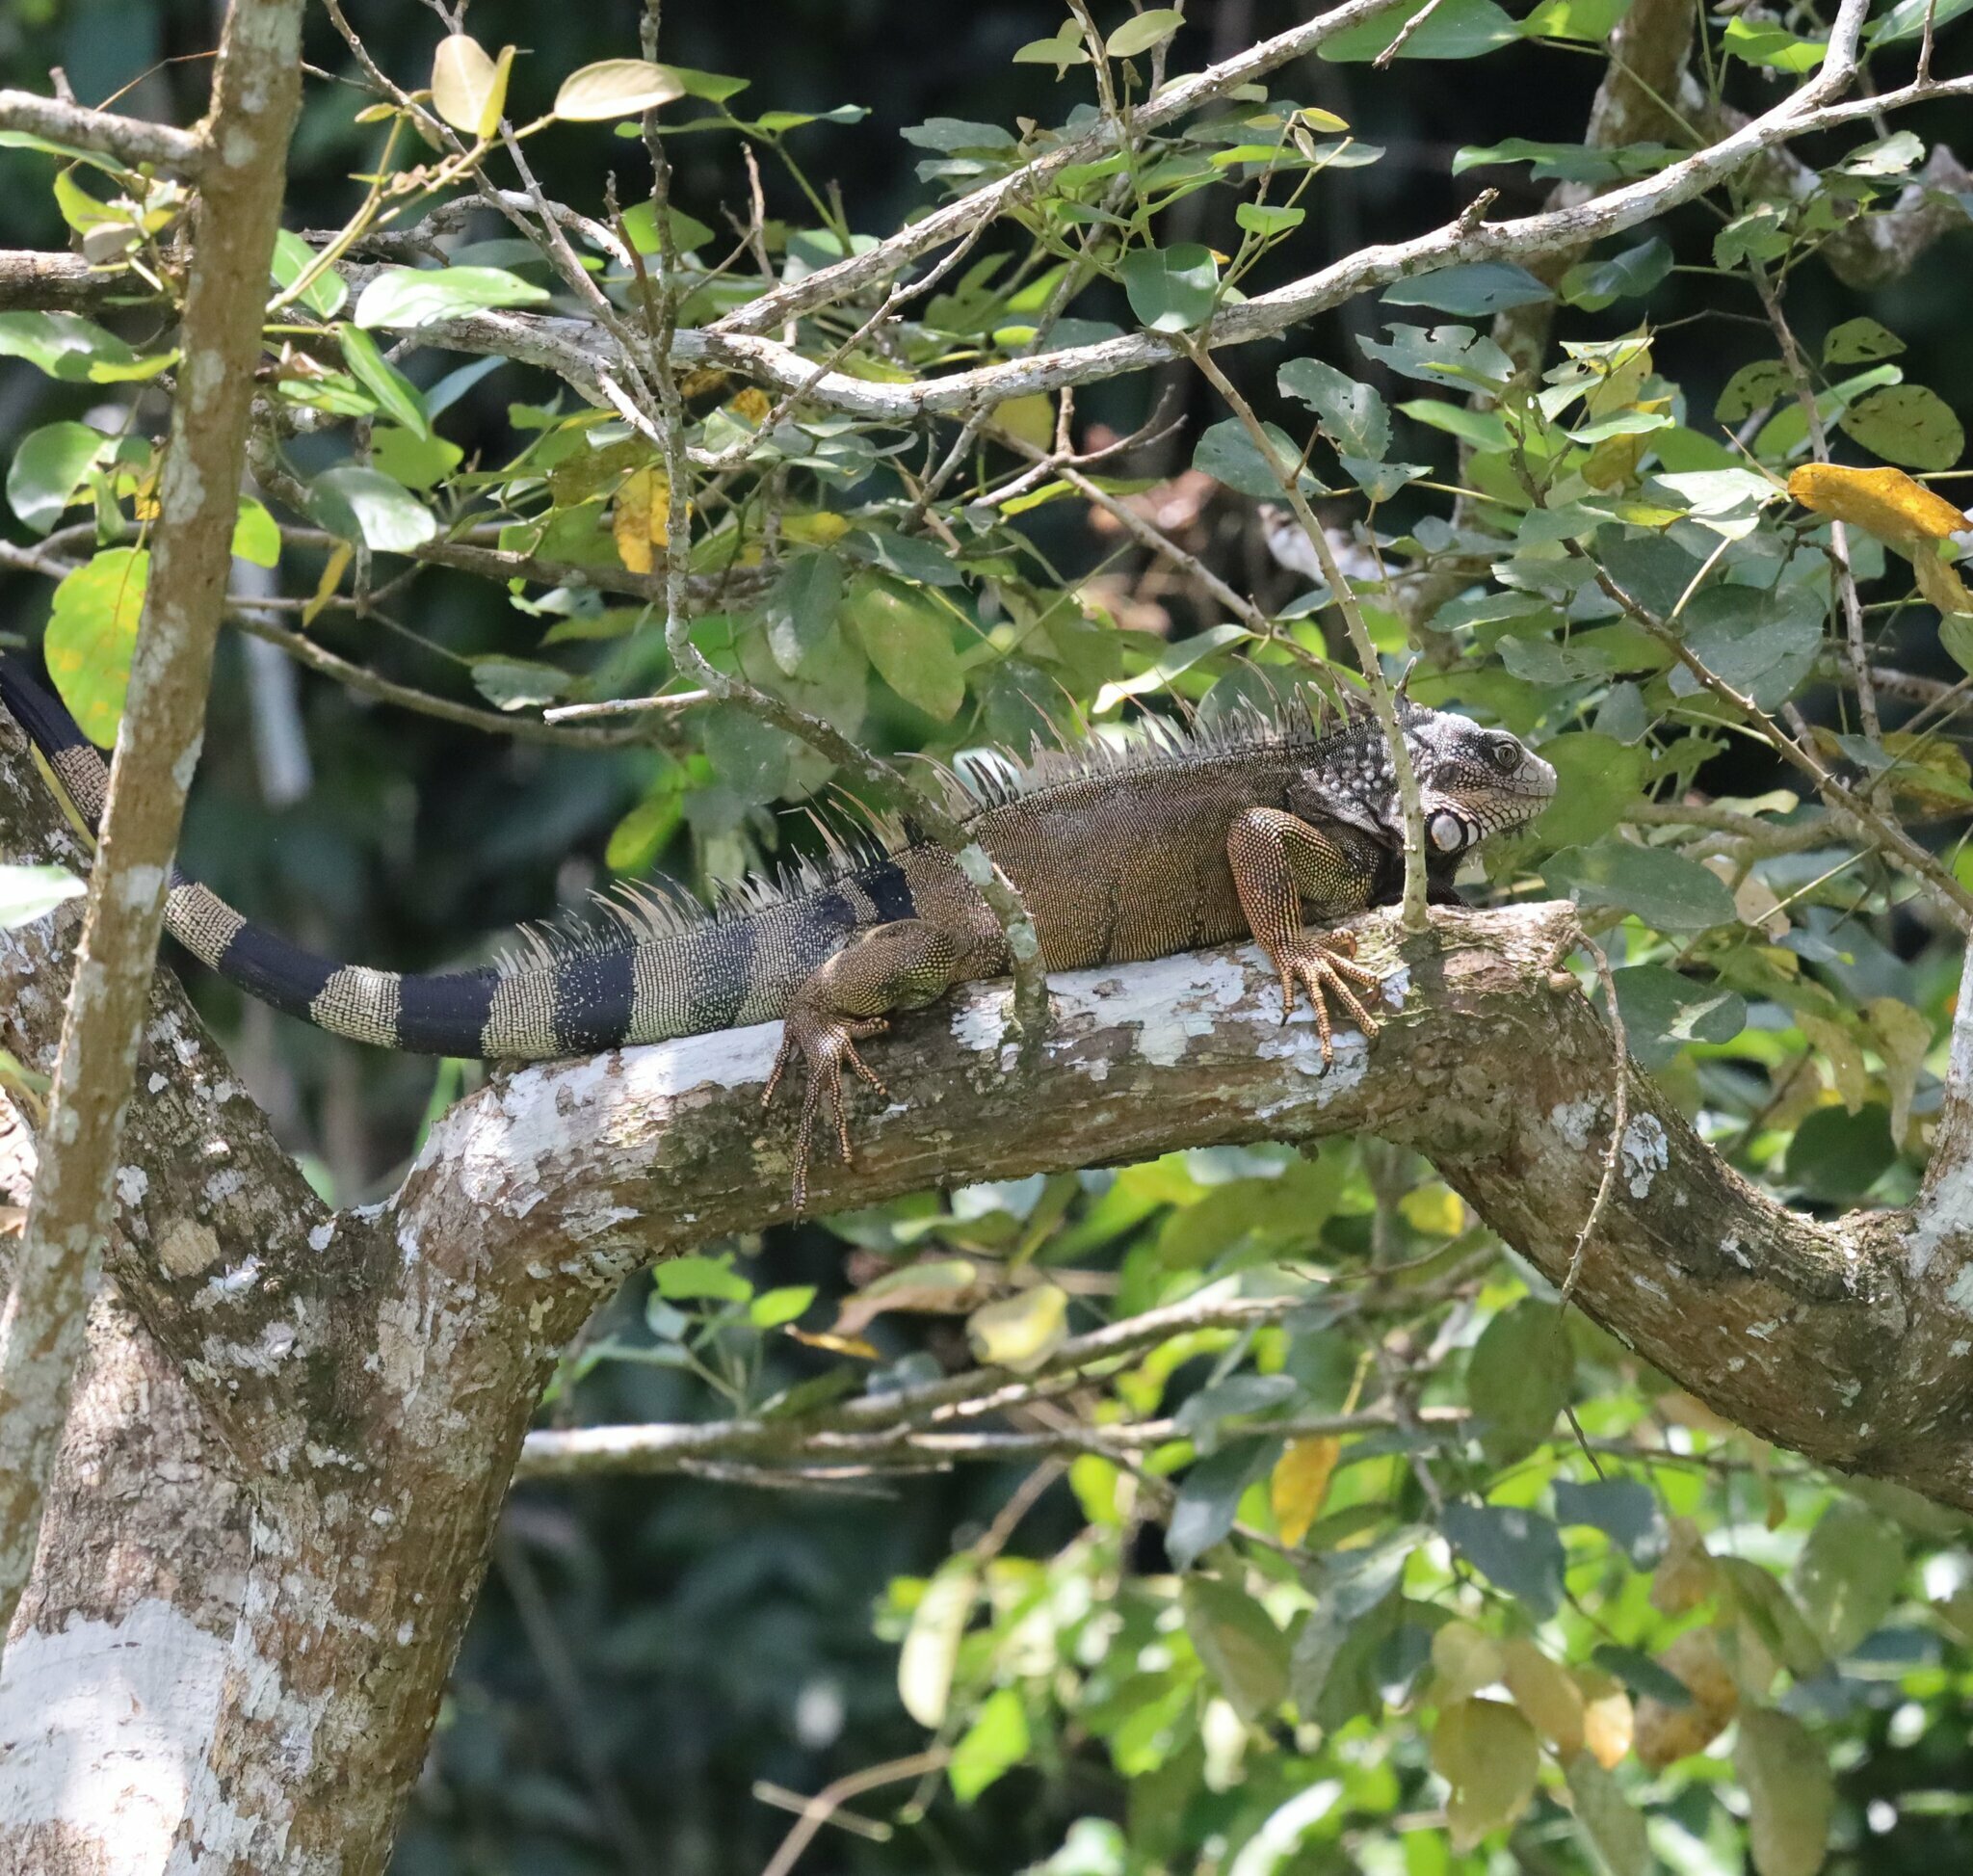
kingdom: Animalia
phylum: Chordata
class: Squamata
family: Iguanidae
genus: Iguana
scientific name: Iguana iguana
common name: Green iguana
